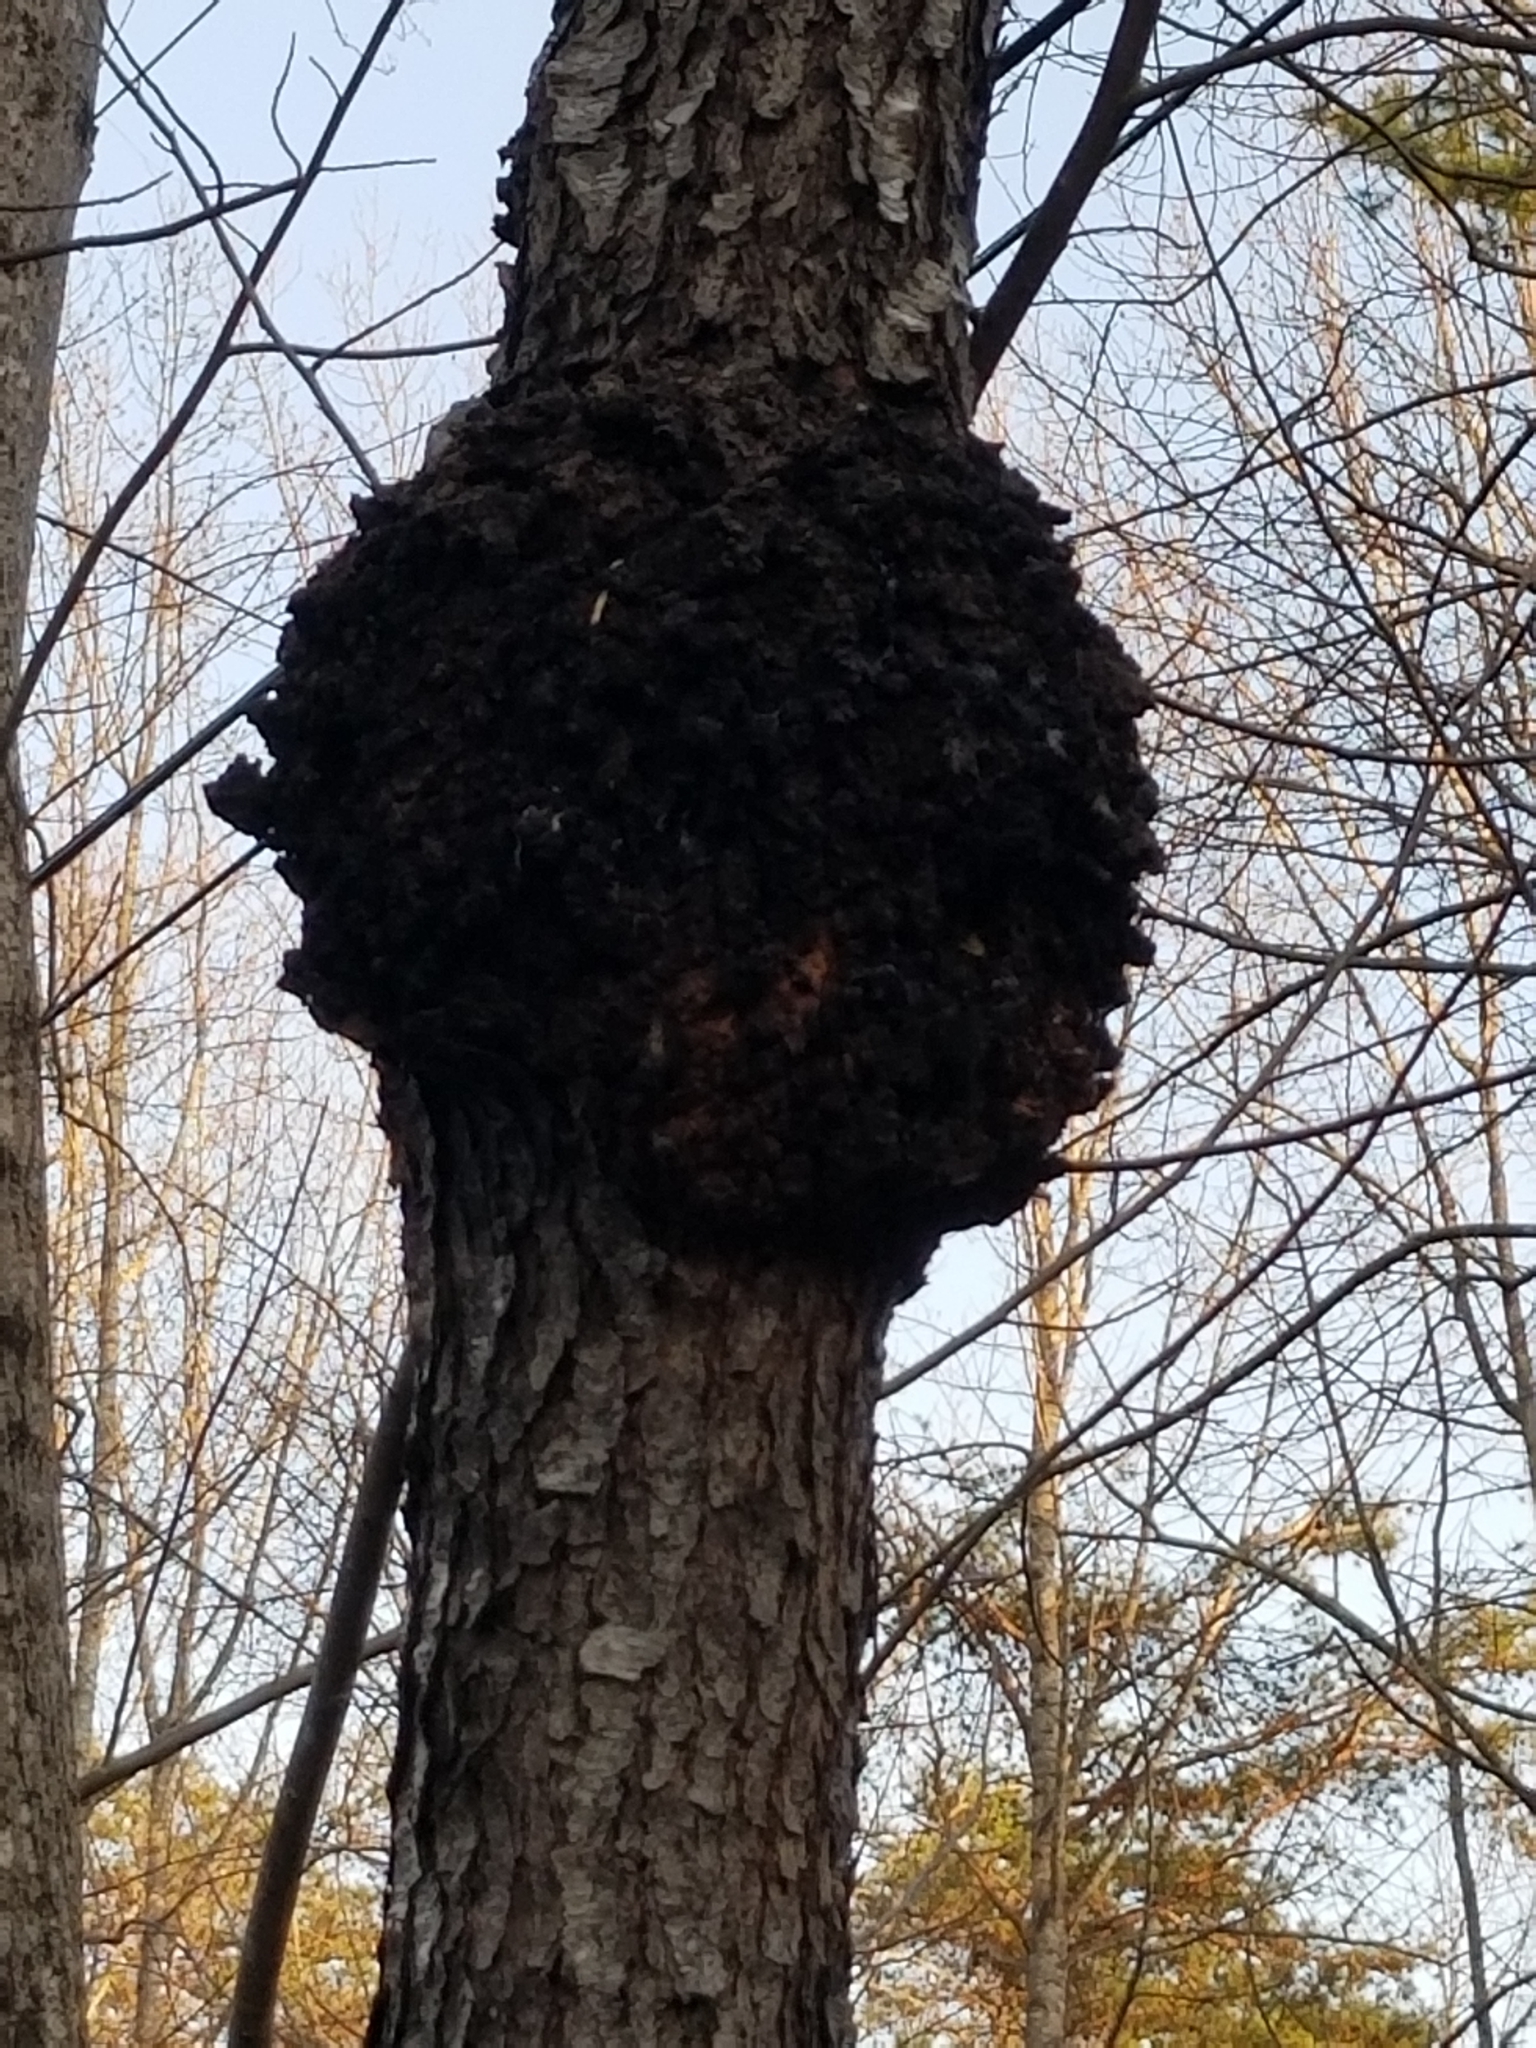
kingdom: Fungi
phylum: Ascomycota
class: Dothideomycetes
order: Venturiales
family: Venturiaceae
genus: Apiosporina
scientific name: Apiosporina morbosa
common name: Black knot
